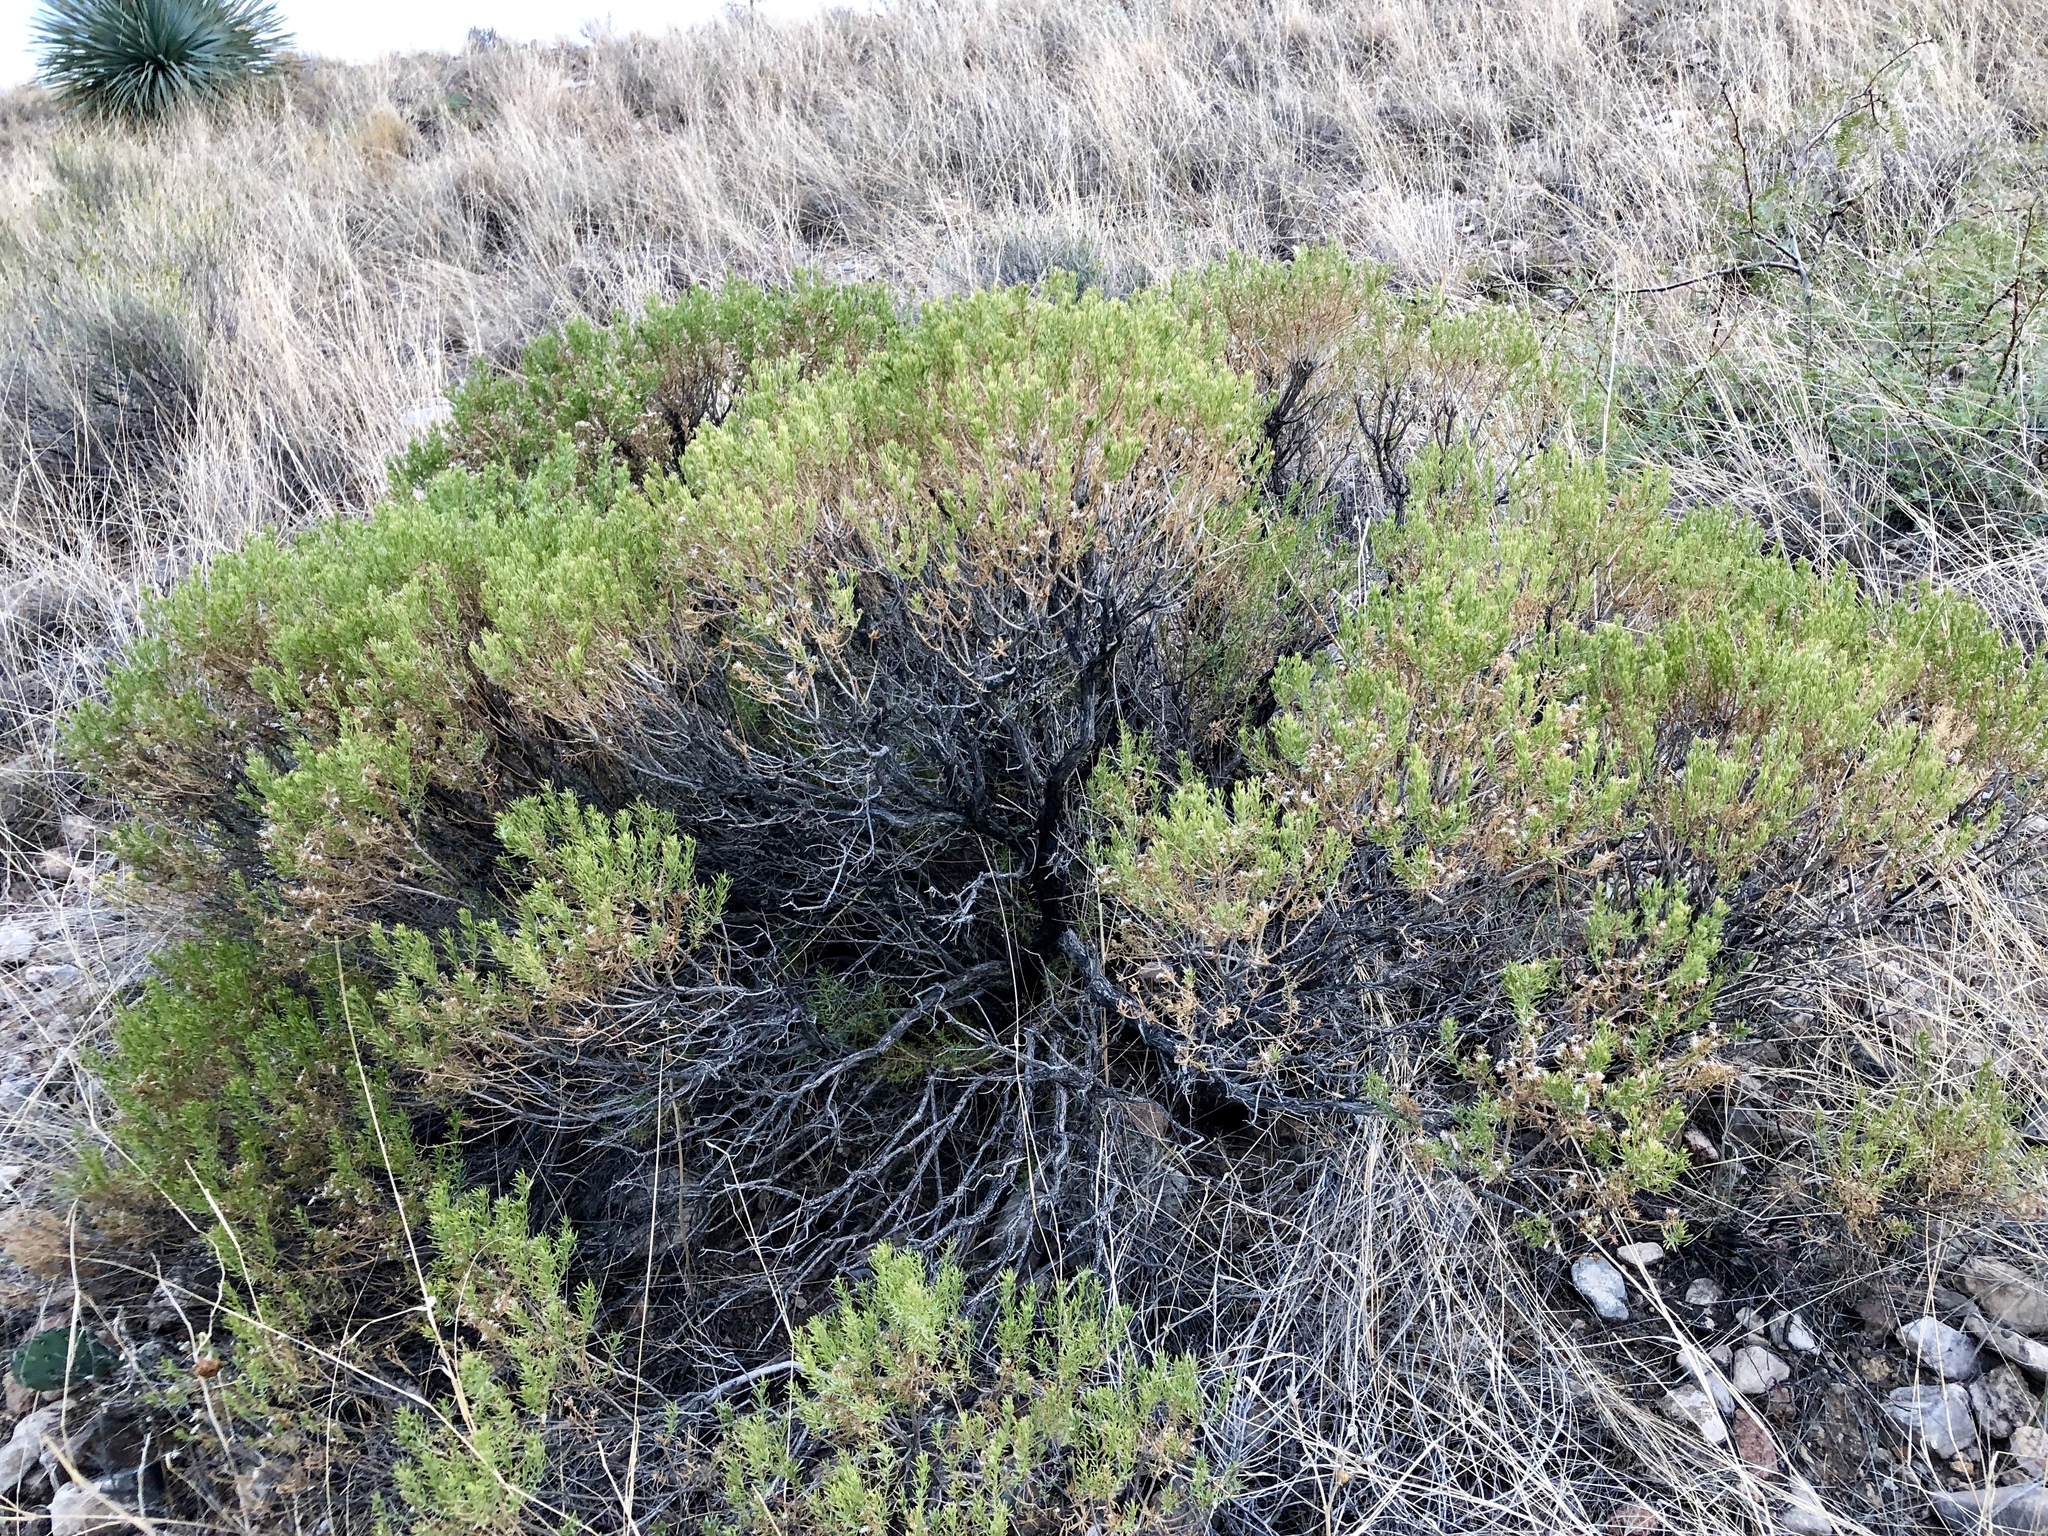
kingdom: Plantae
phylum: Tracheophyta
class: Magnoliopsida
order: Asterales
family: Asteraceae
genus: Ericameria
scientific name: Ericameria laricifolia
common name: Turpentine-bush
